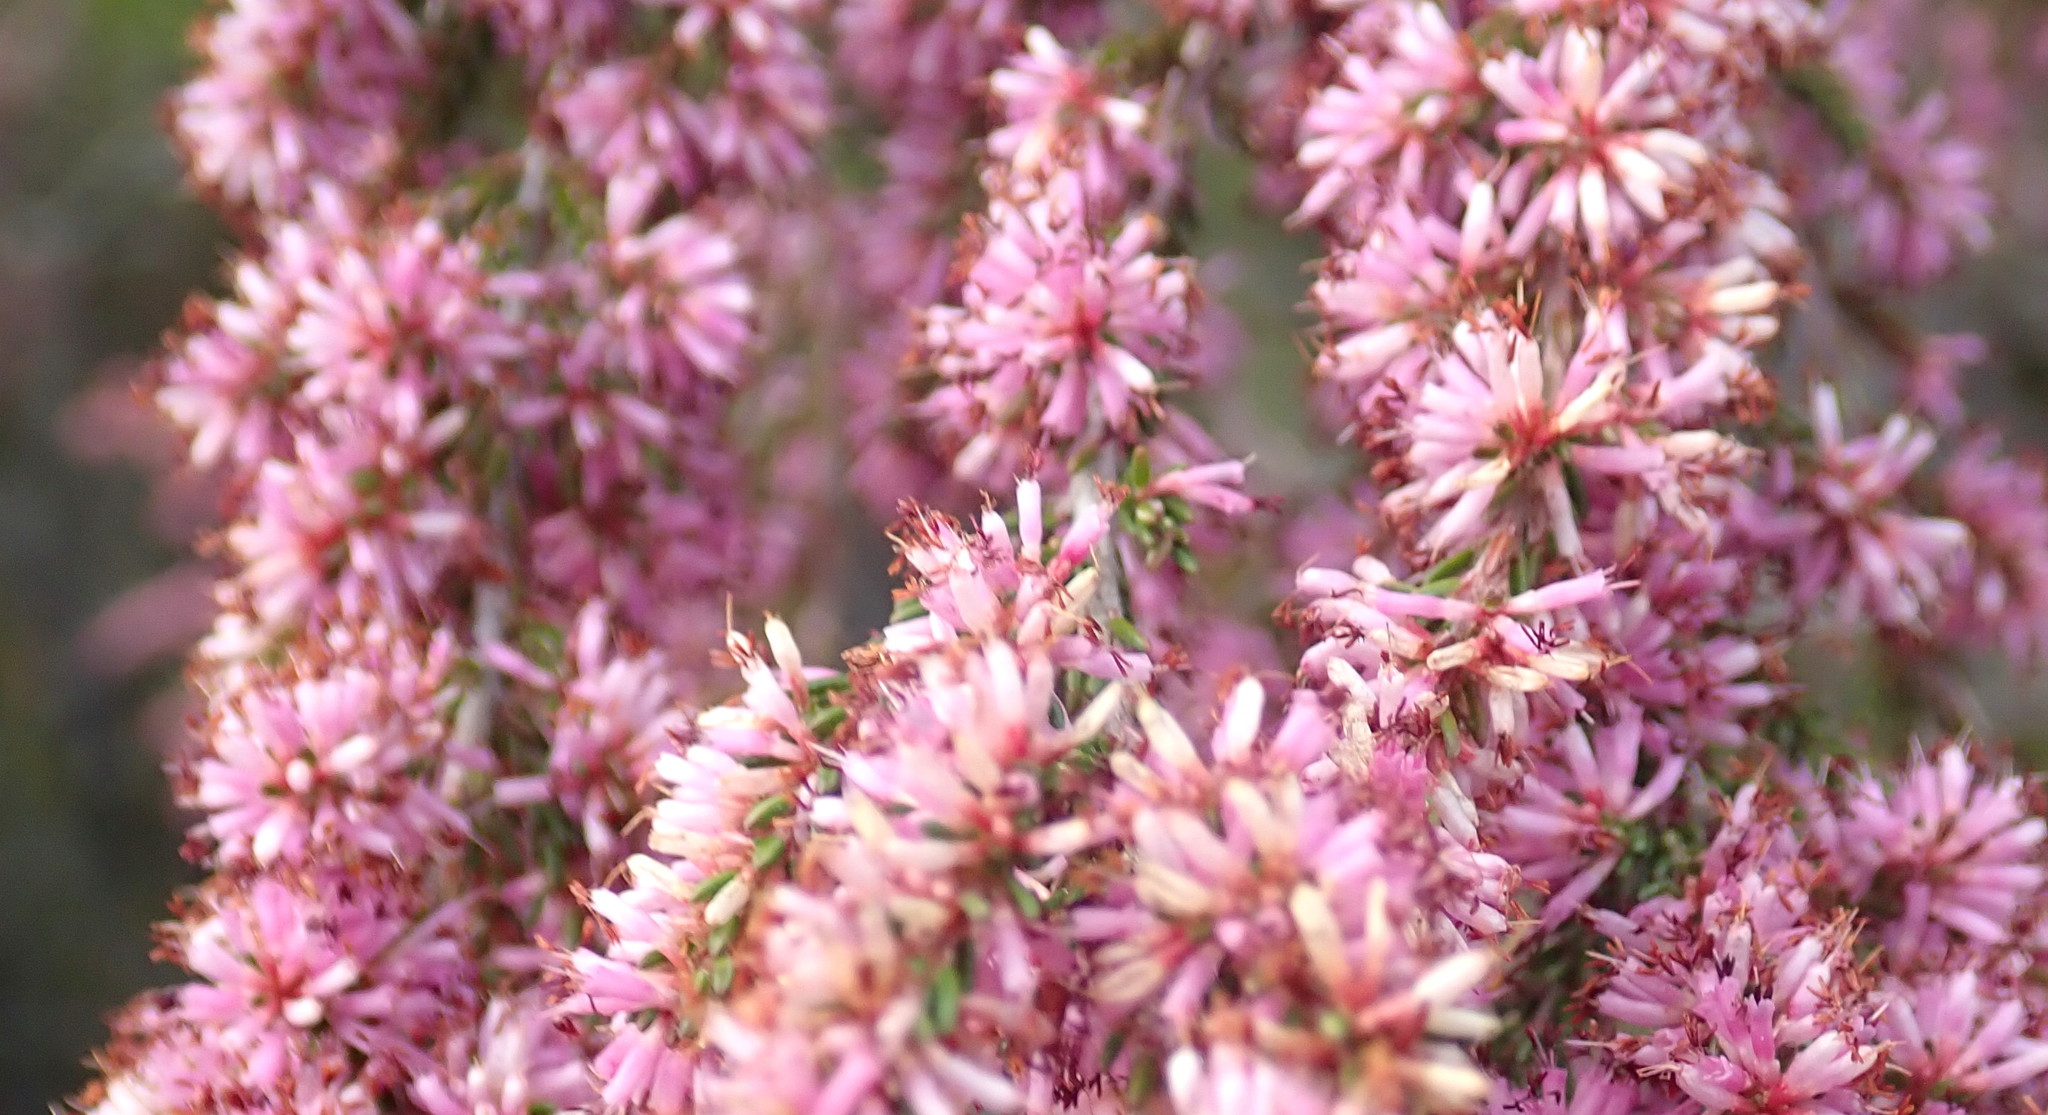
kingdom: Plantae
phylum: Tracheophyta
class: Magnoliopsida
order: Ericales
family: Ericaceae
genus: Erica
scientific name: Erica uberiflora
